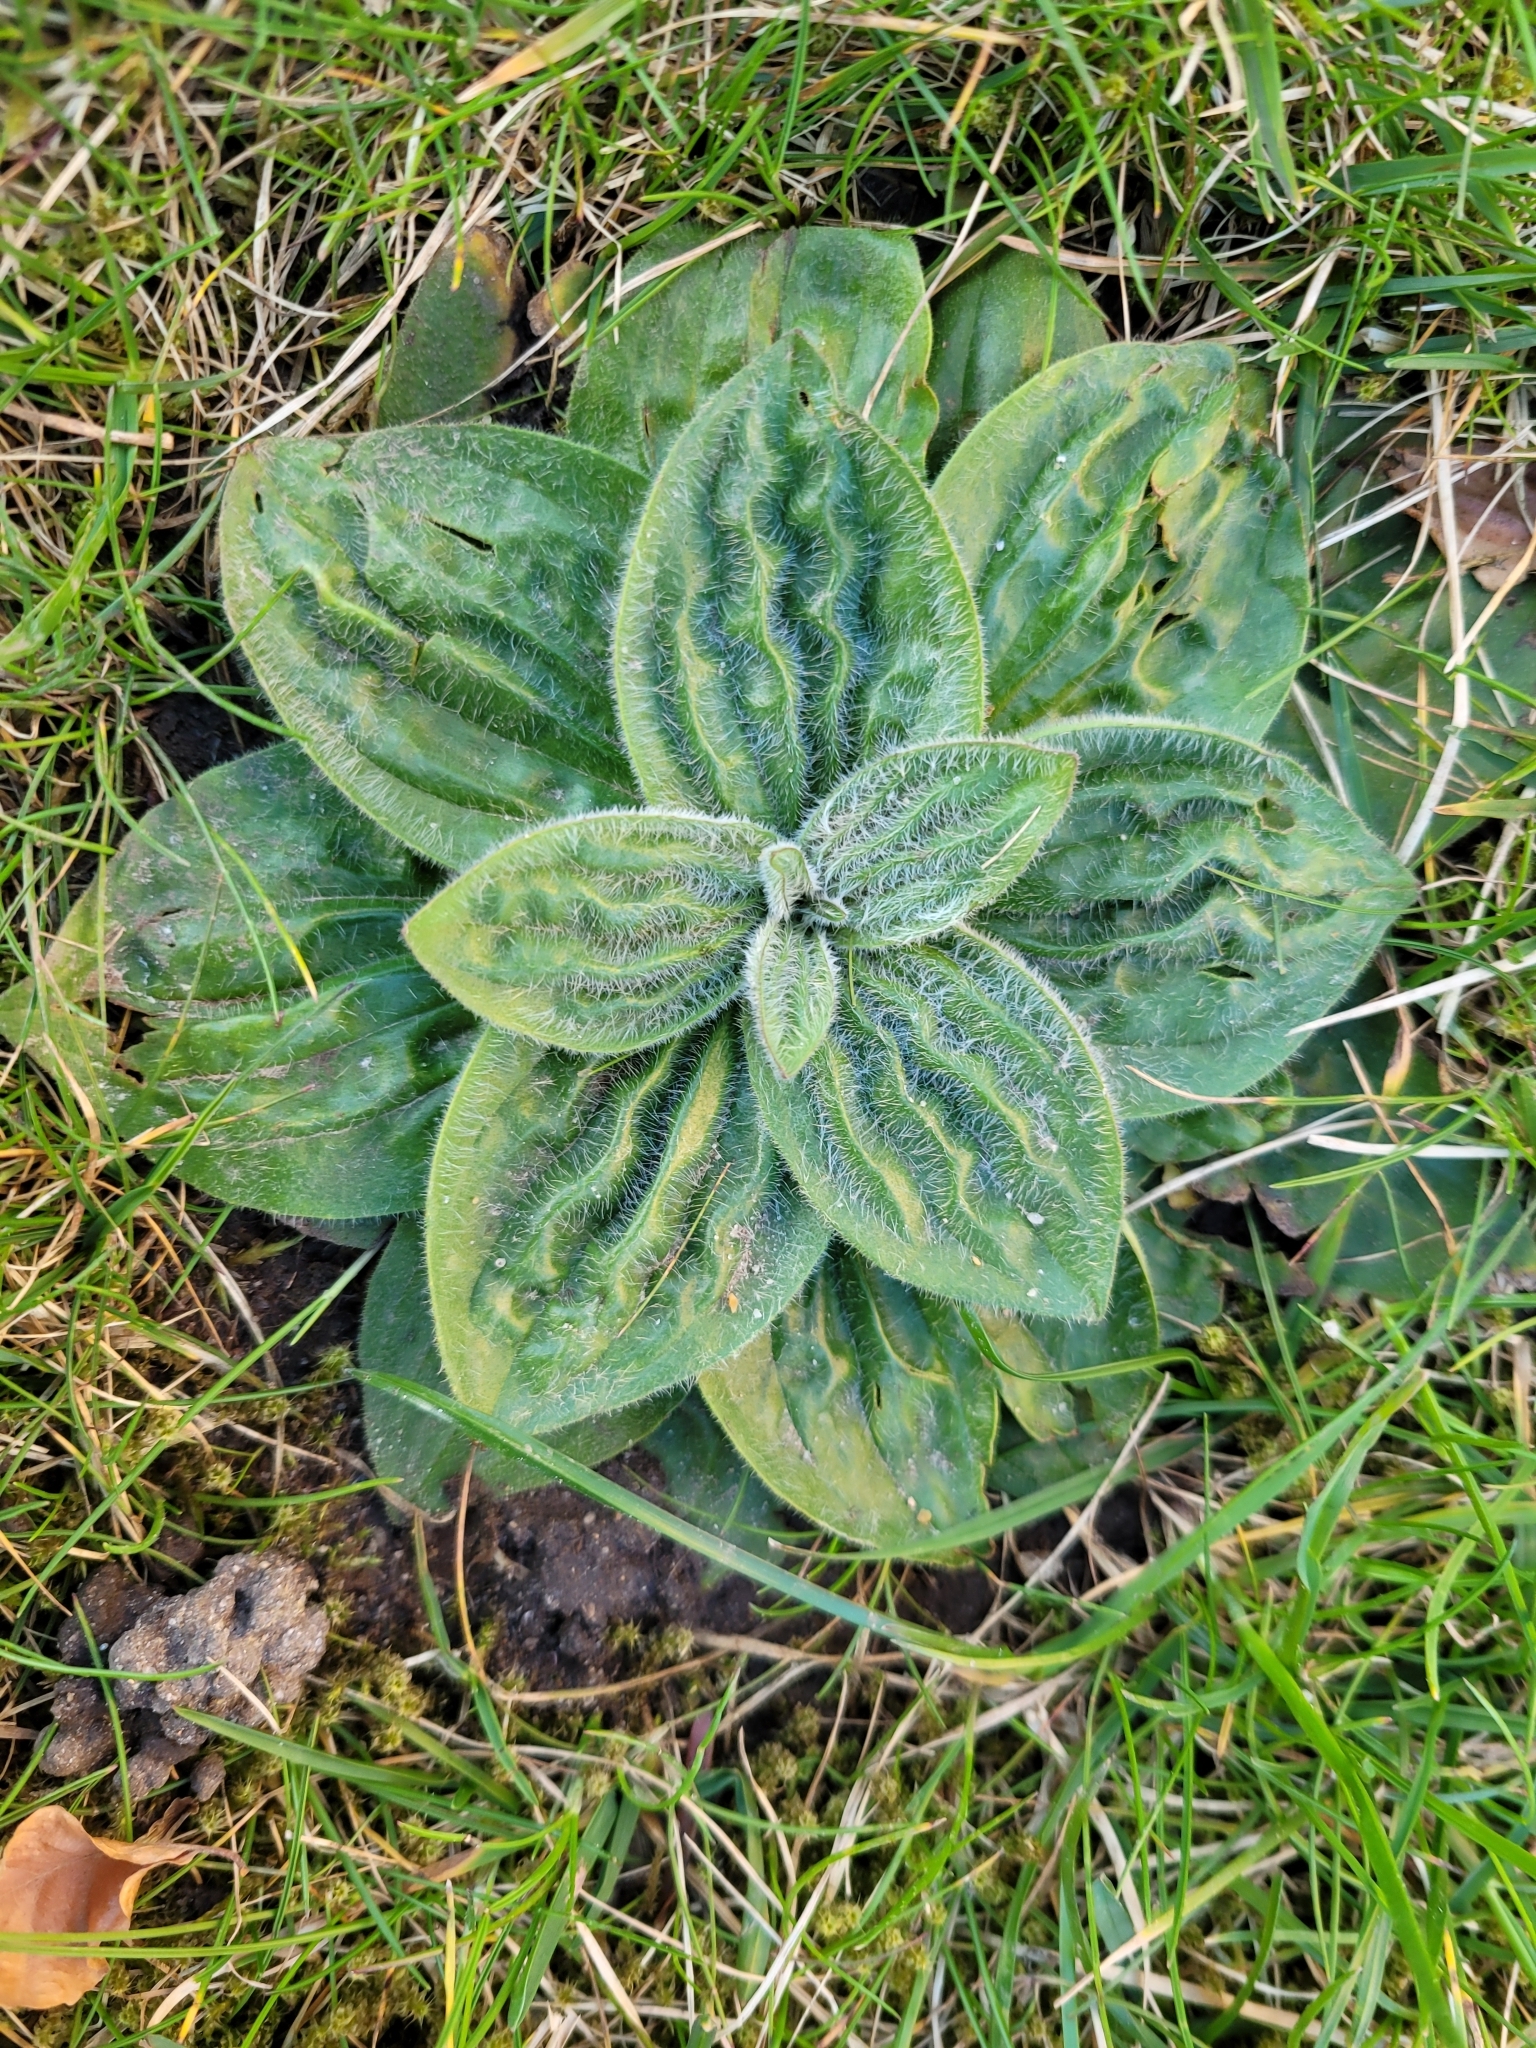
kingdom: Plantae
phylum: Tracheophyta
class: Magnoliopsida
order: Lamiales
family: Plantaginaceae
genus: Plantago
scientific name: Plantago media
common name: Hoary plantain
